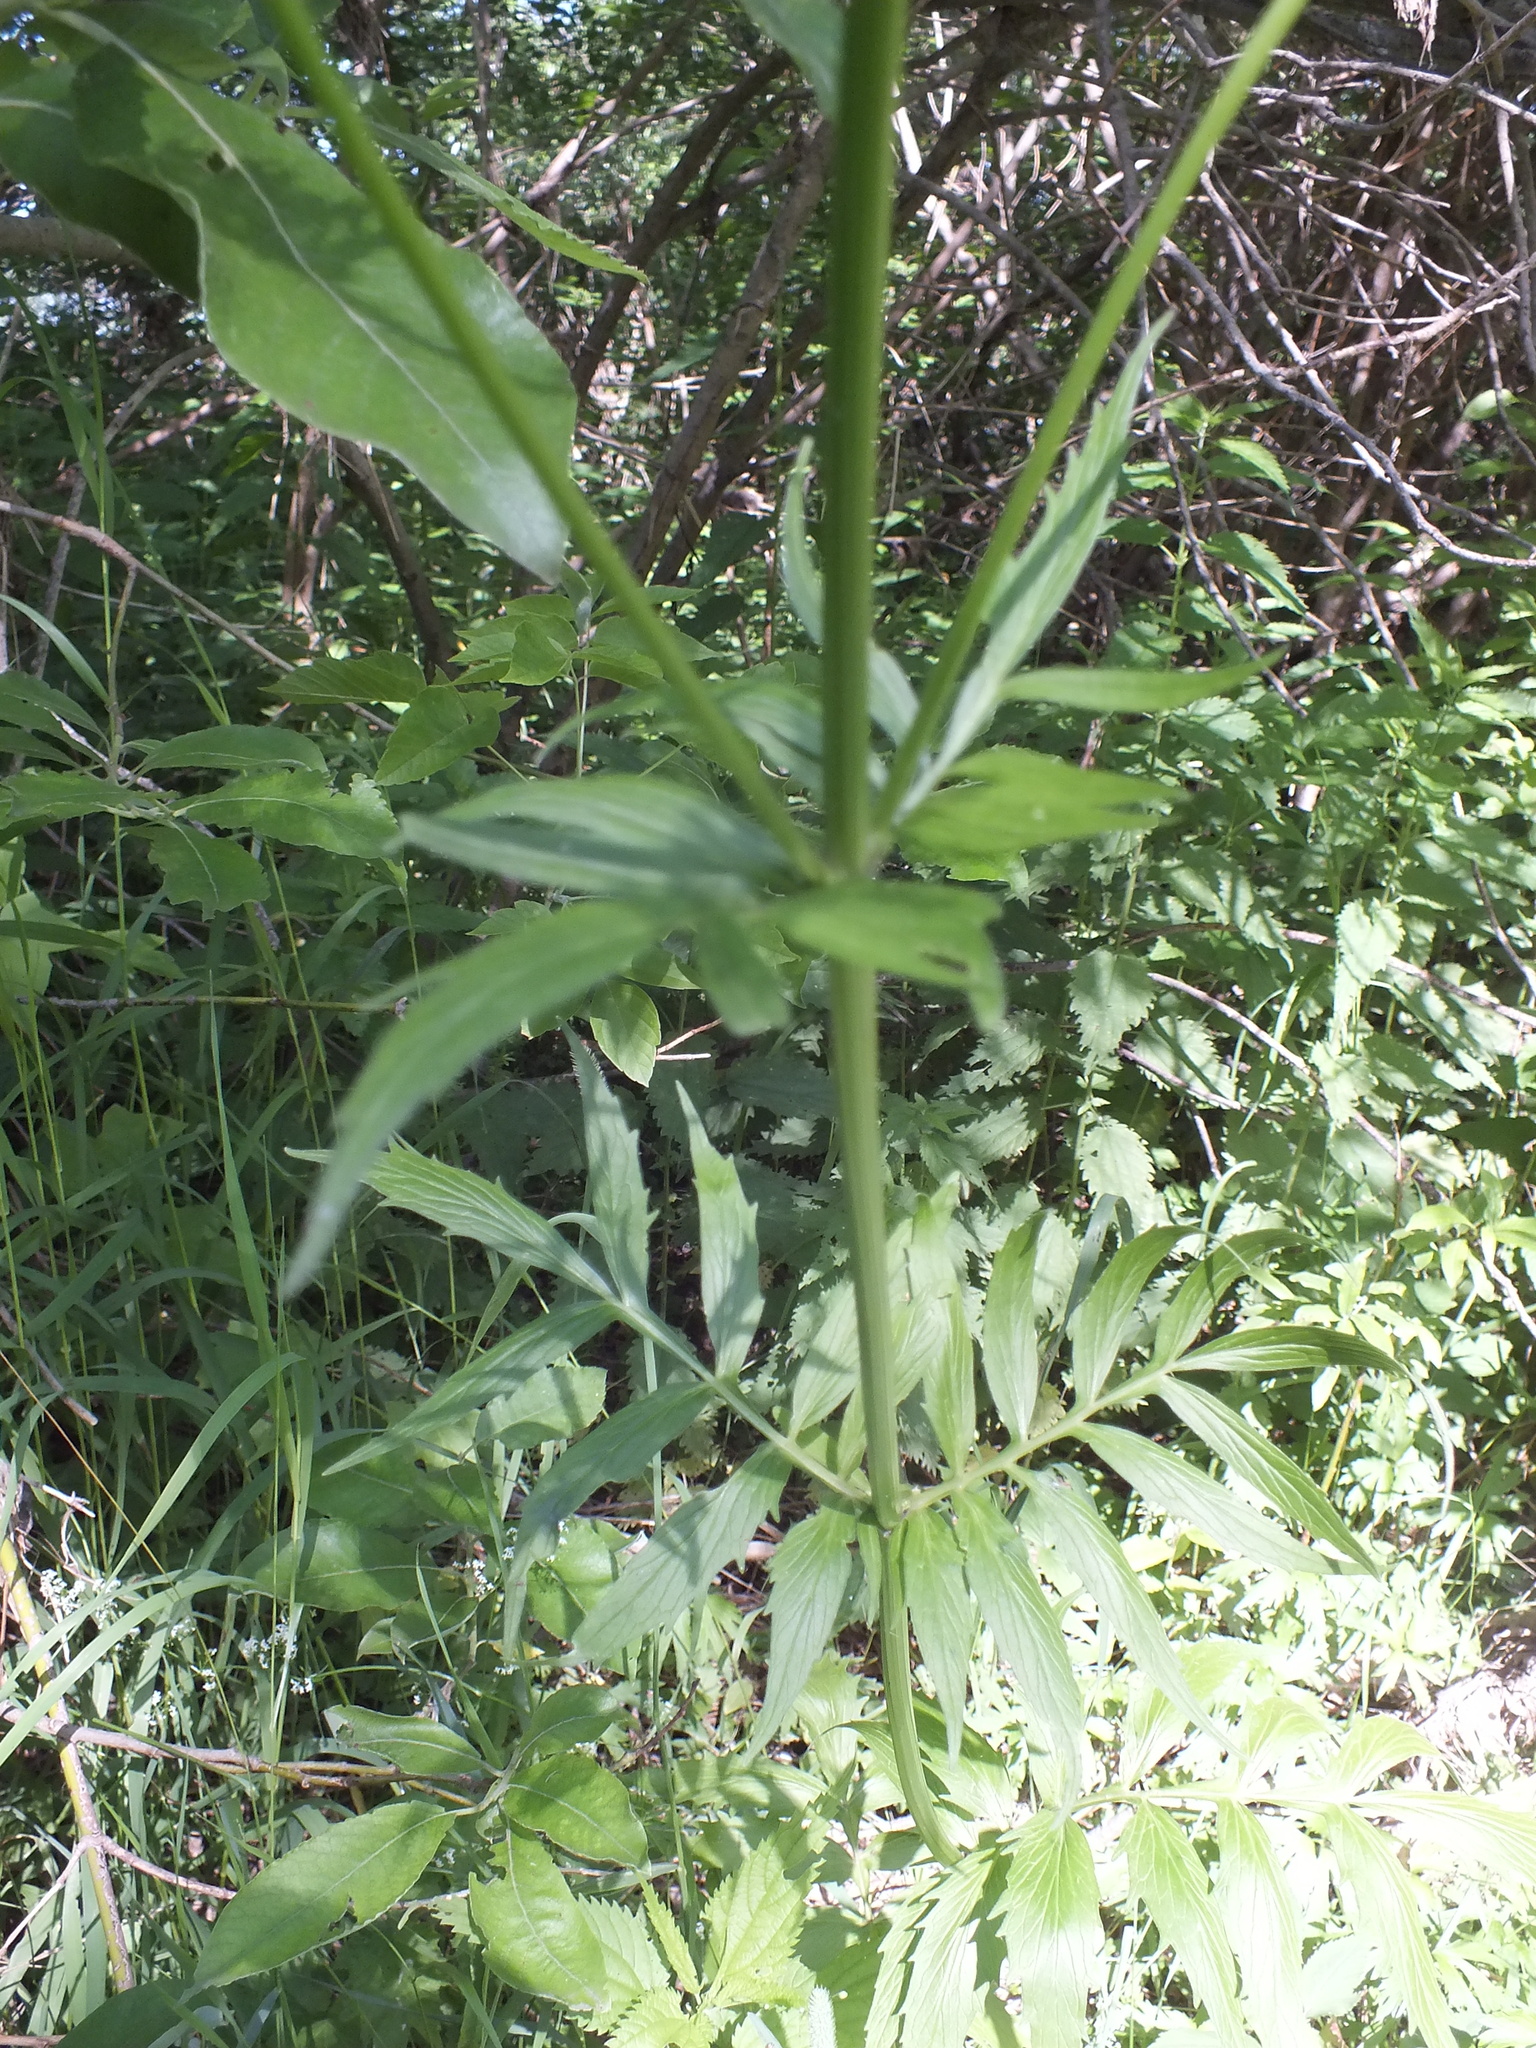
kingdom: Plantae
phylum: Tracheophyta
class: Magnoliopsida
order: Dipsacales
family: Caprifoliaceae
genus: Valeriana
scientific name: Valeriana officinalis
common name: Common valerian
